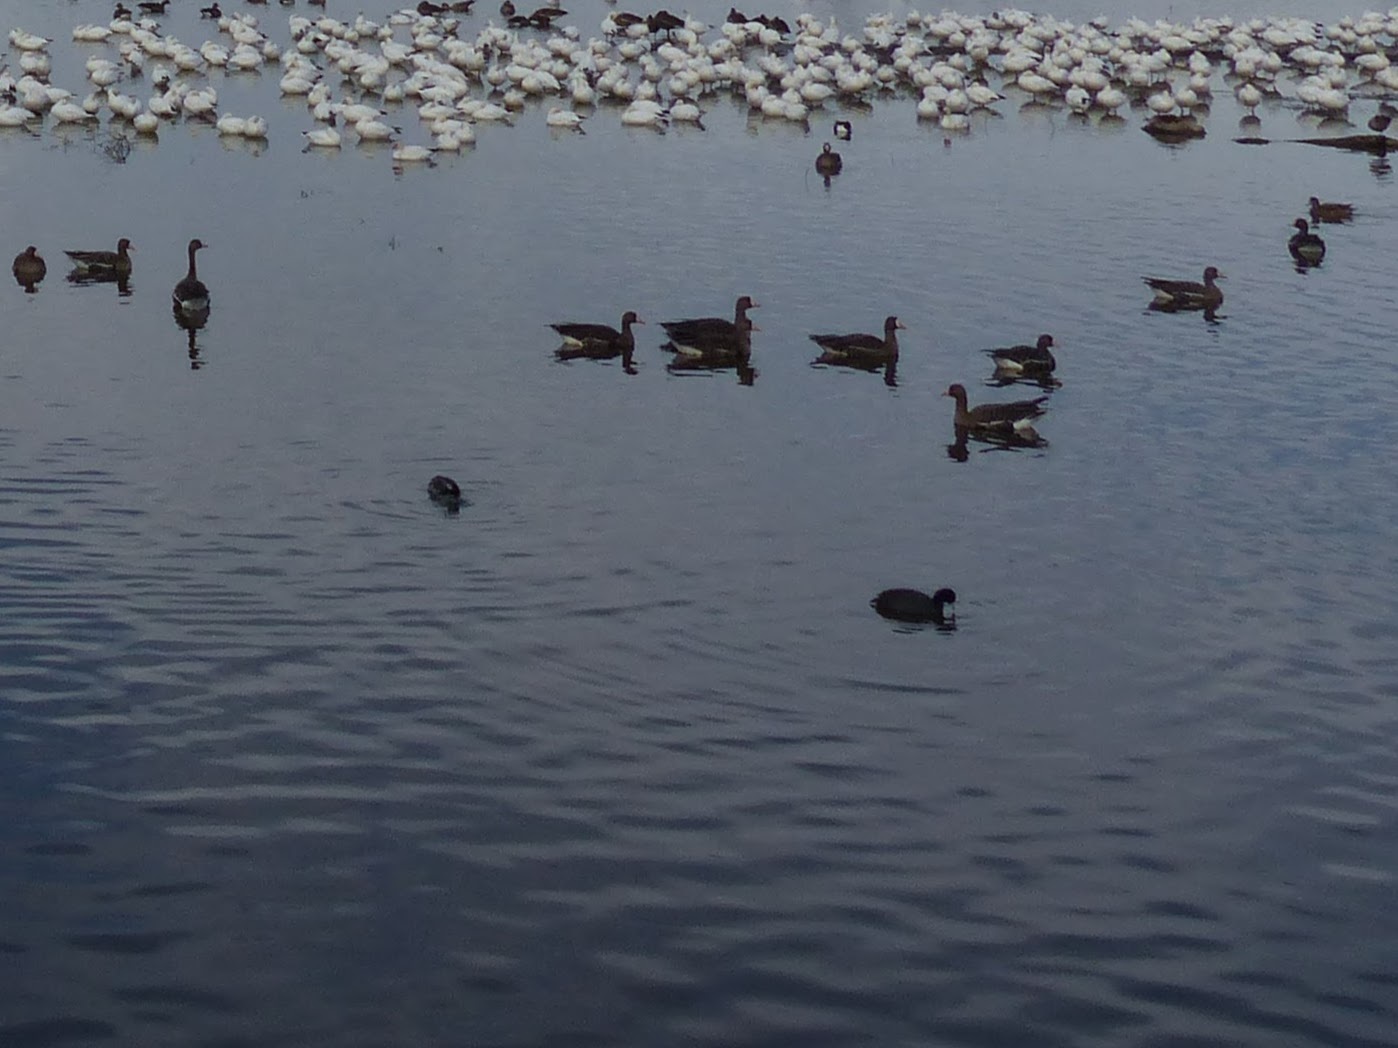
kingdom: Animalia
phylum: Chordata
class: Aves
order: Gruiformes
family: Rallidae
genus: Fulica
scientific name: Fulica americana
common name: American coot
